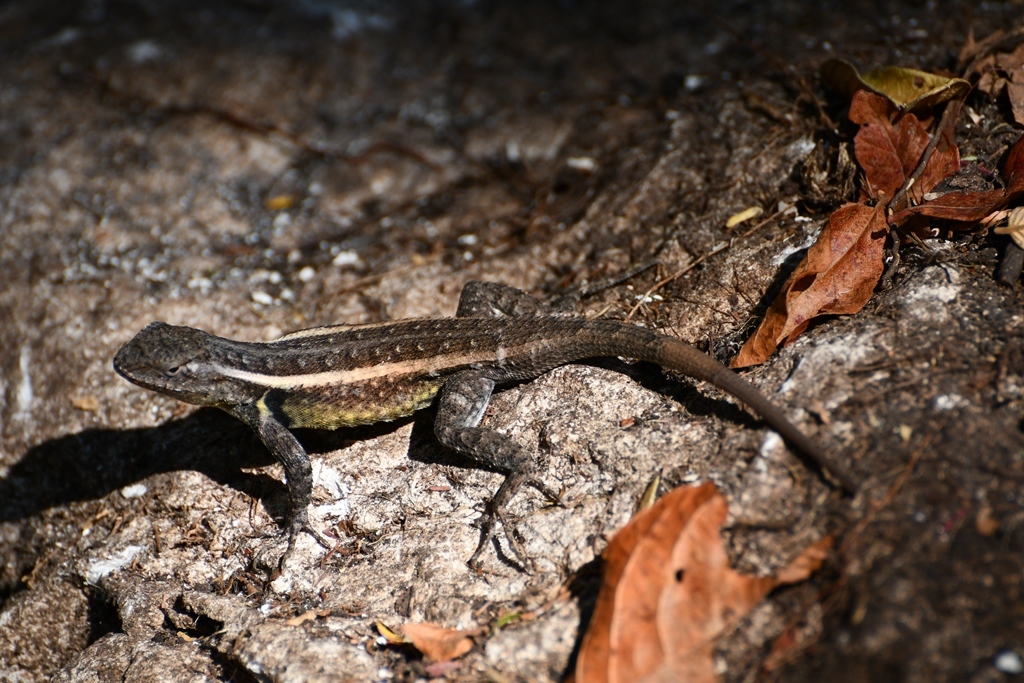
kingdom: Animalia
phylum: Chordata
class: Squamata
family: Phrynosomatidae
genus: Sceloporus
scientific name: Sceloporus variabilis
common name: Rosebelly lizard
